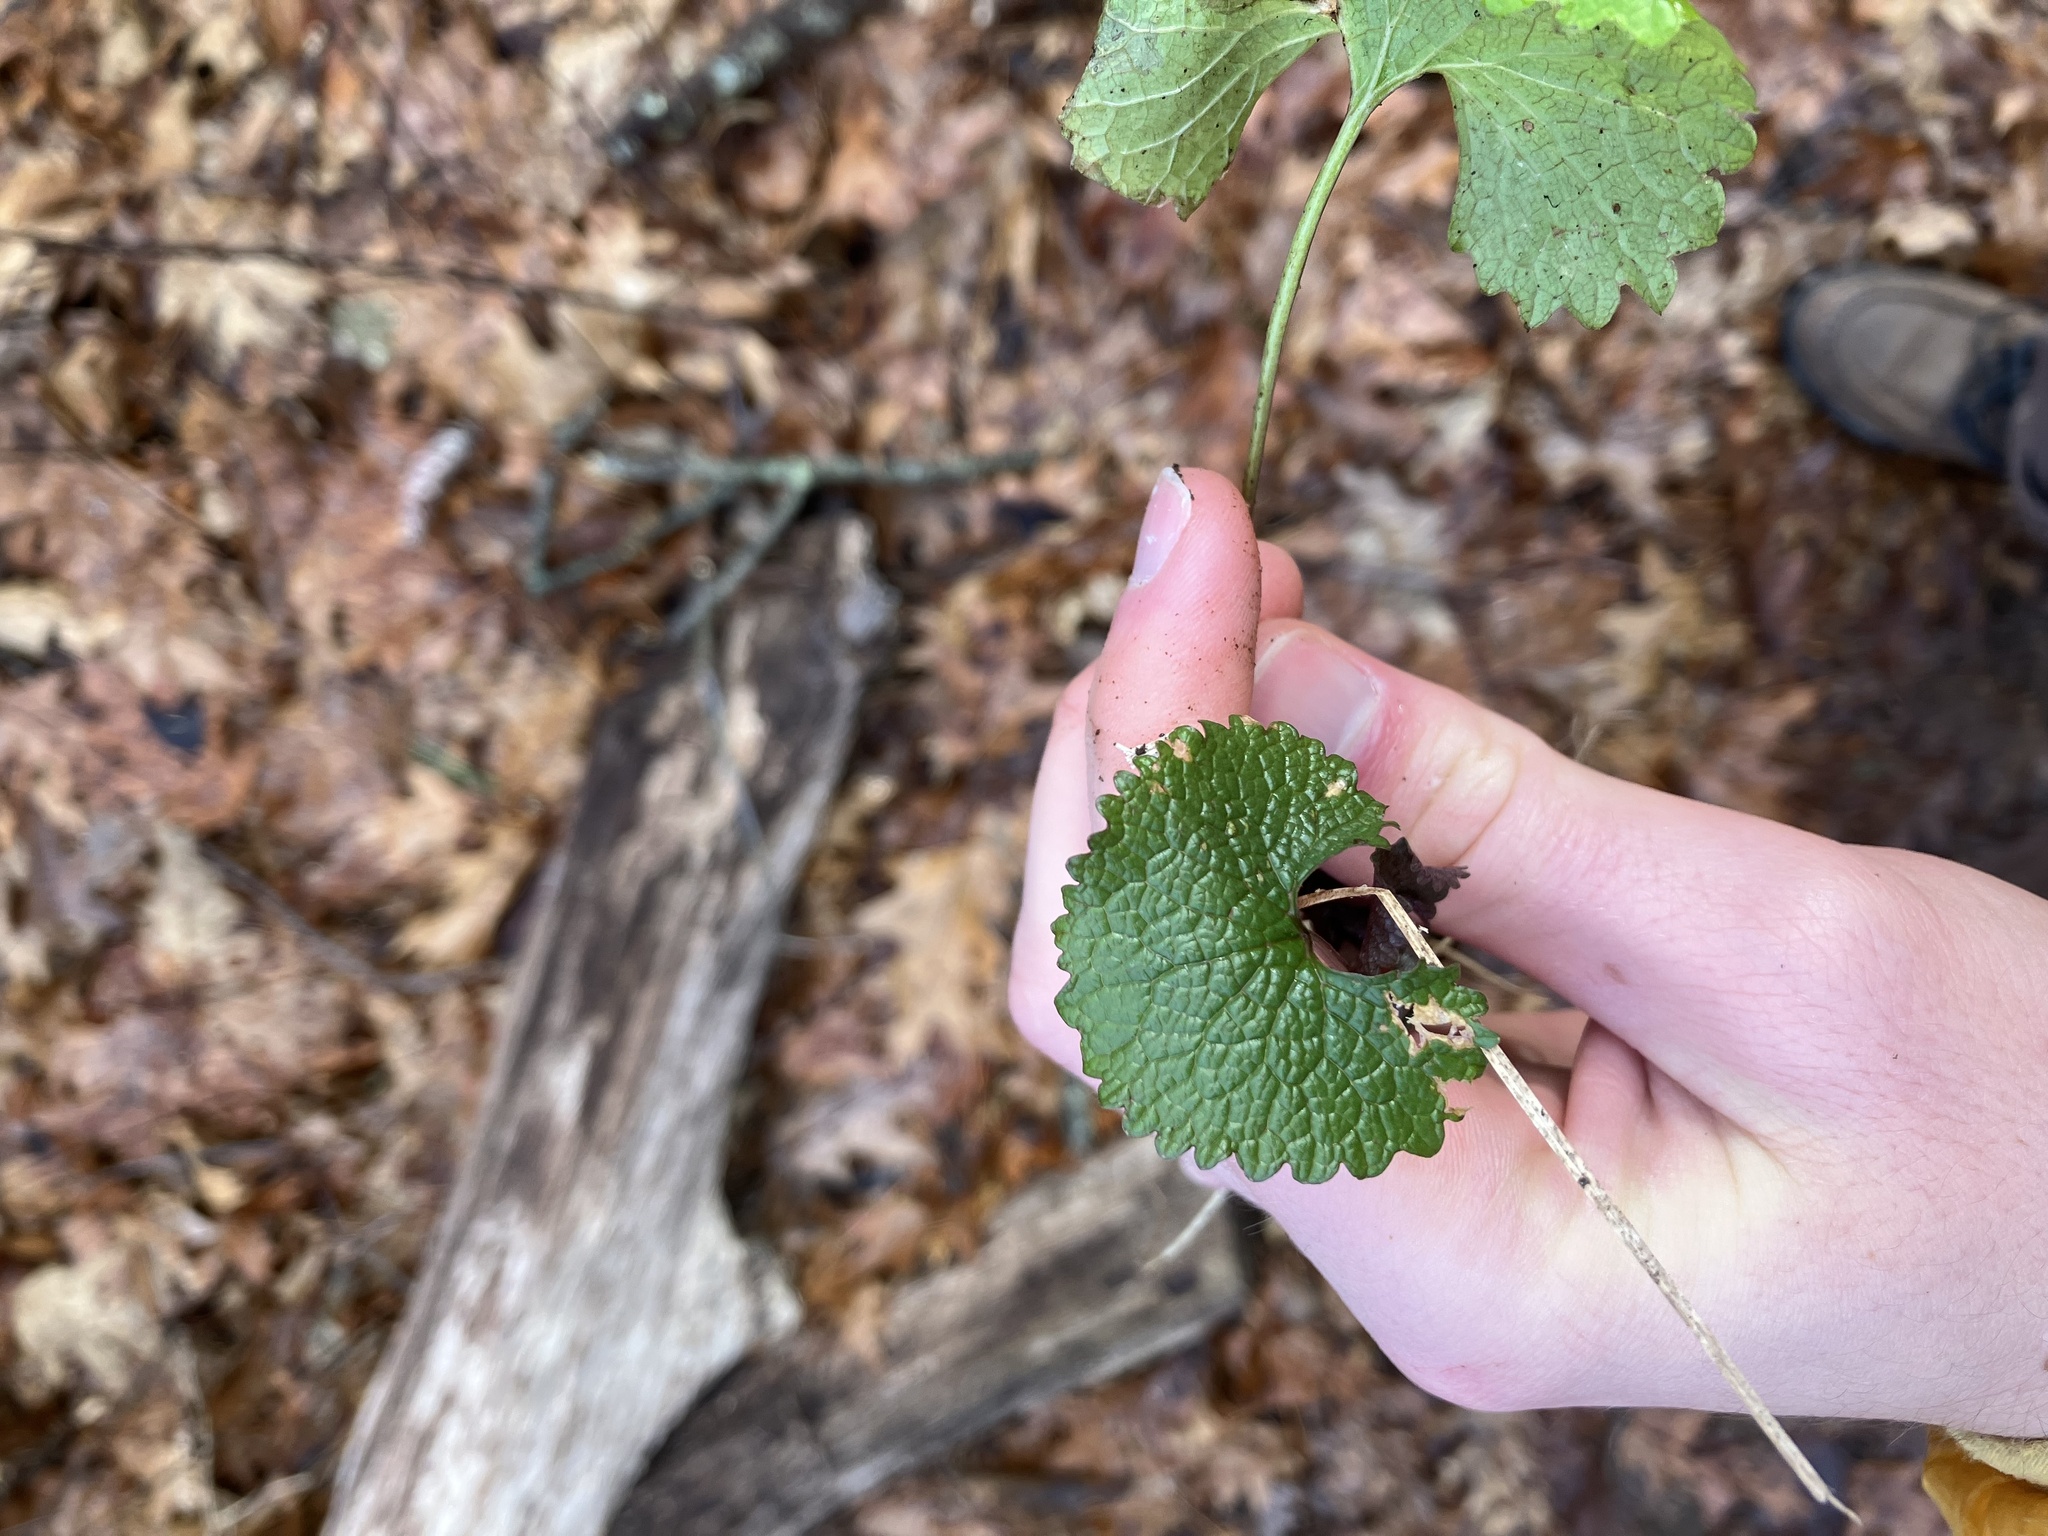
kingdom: Plantae
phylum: Tracheophyta
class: Magnoliopsida
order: Brassicales
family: Brassicaceae
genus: Alliaria
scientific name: Alliaria petiolata
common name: Garlic mustard
